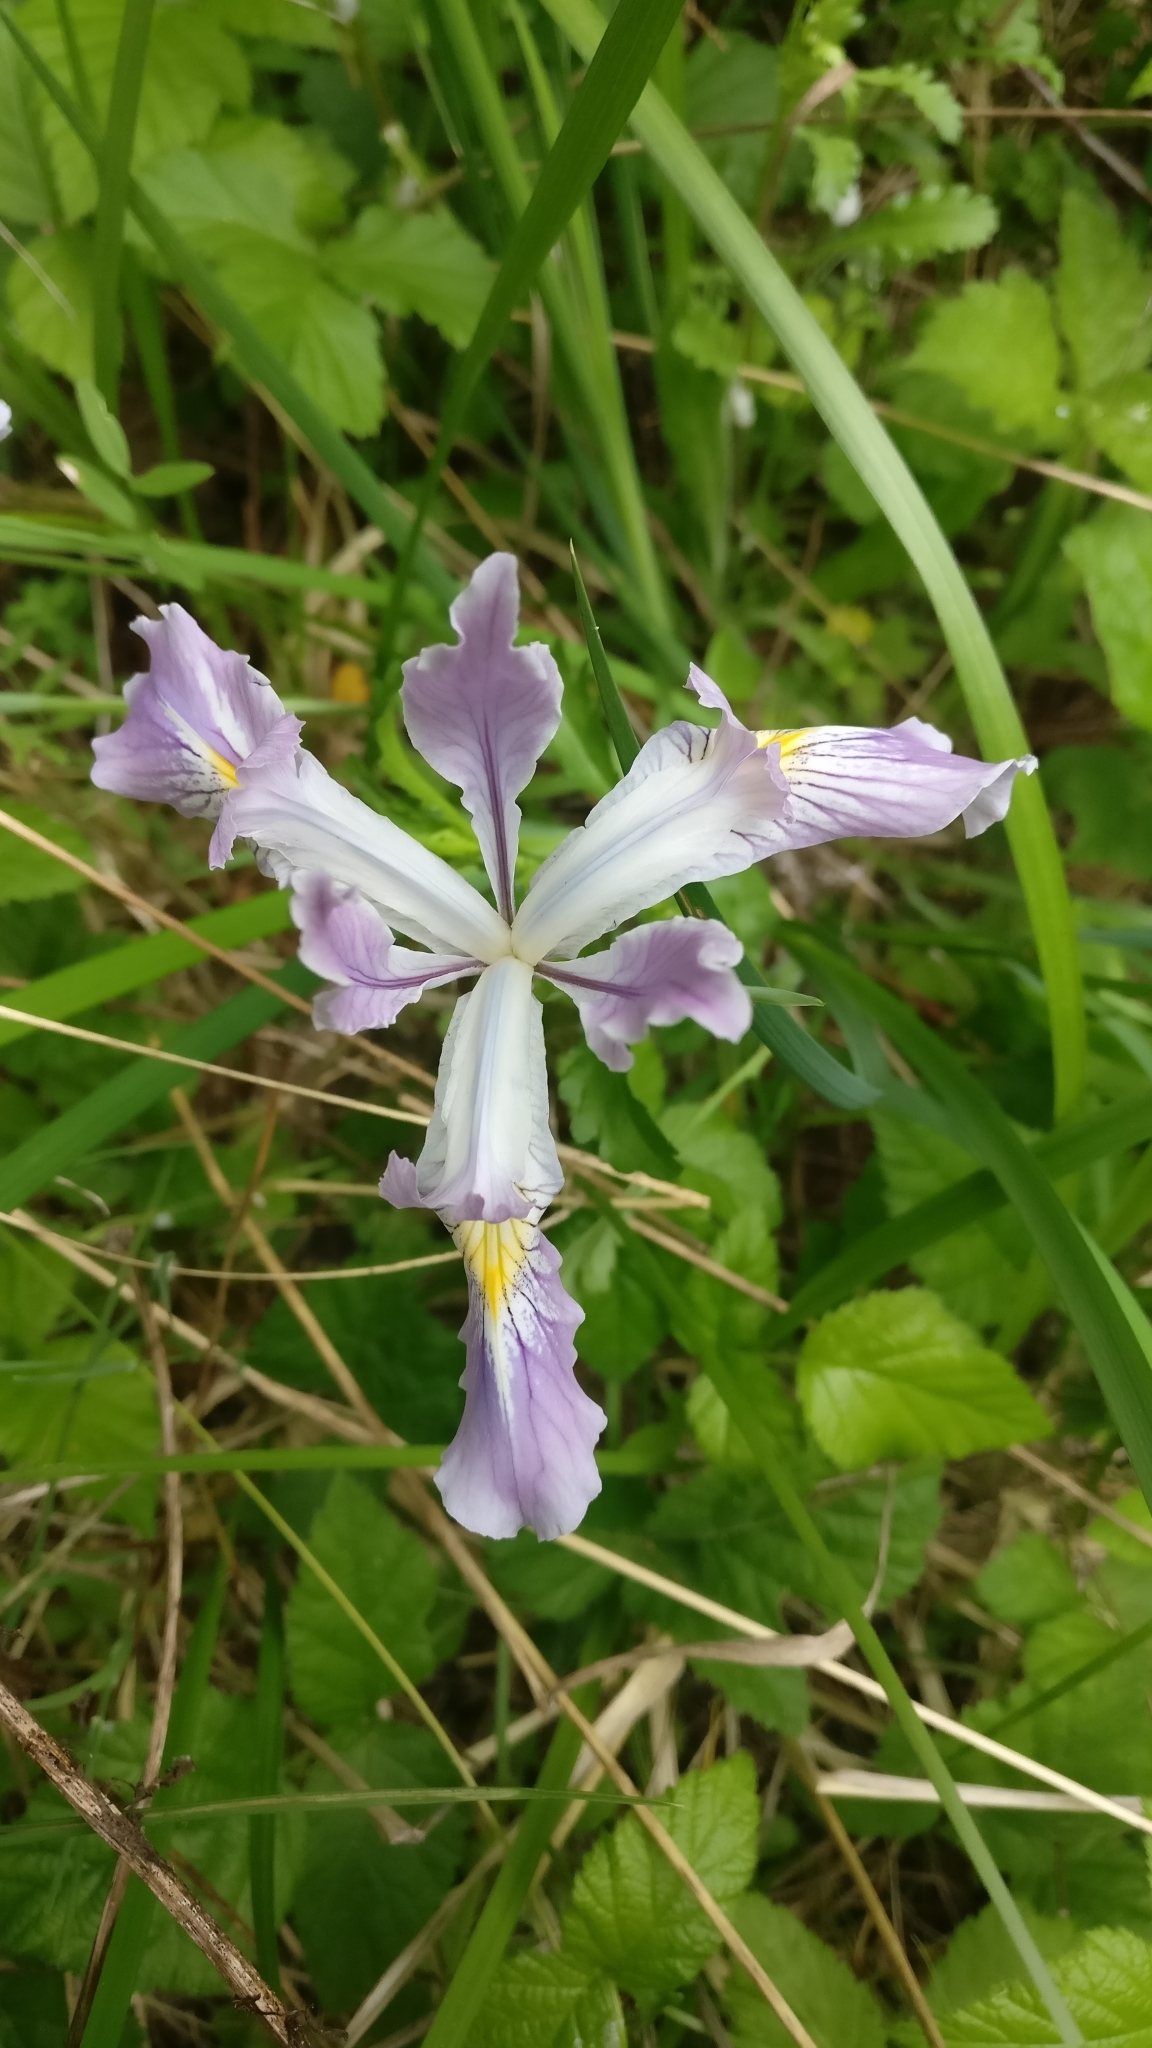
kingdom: Plantae
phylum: Tracheophyta
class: Liliopsida
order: Asparagales
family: Iridaceae
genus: Iris
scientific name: Iris tenax
